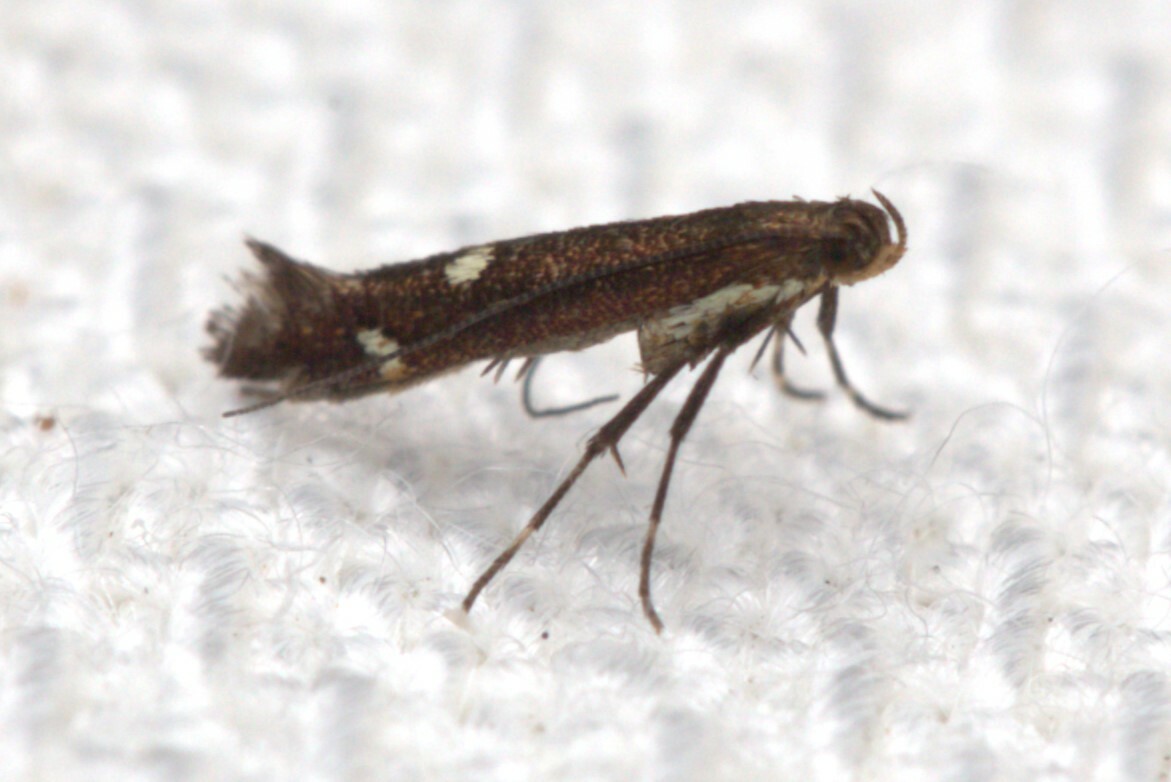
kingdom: Animalia
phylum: Arthropoda
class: Insecta
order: Lepidoptera
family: Gracillariidae
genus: Caloptilia
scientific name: Caloptilia adelosema
